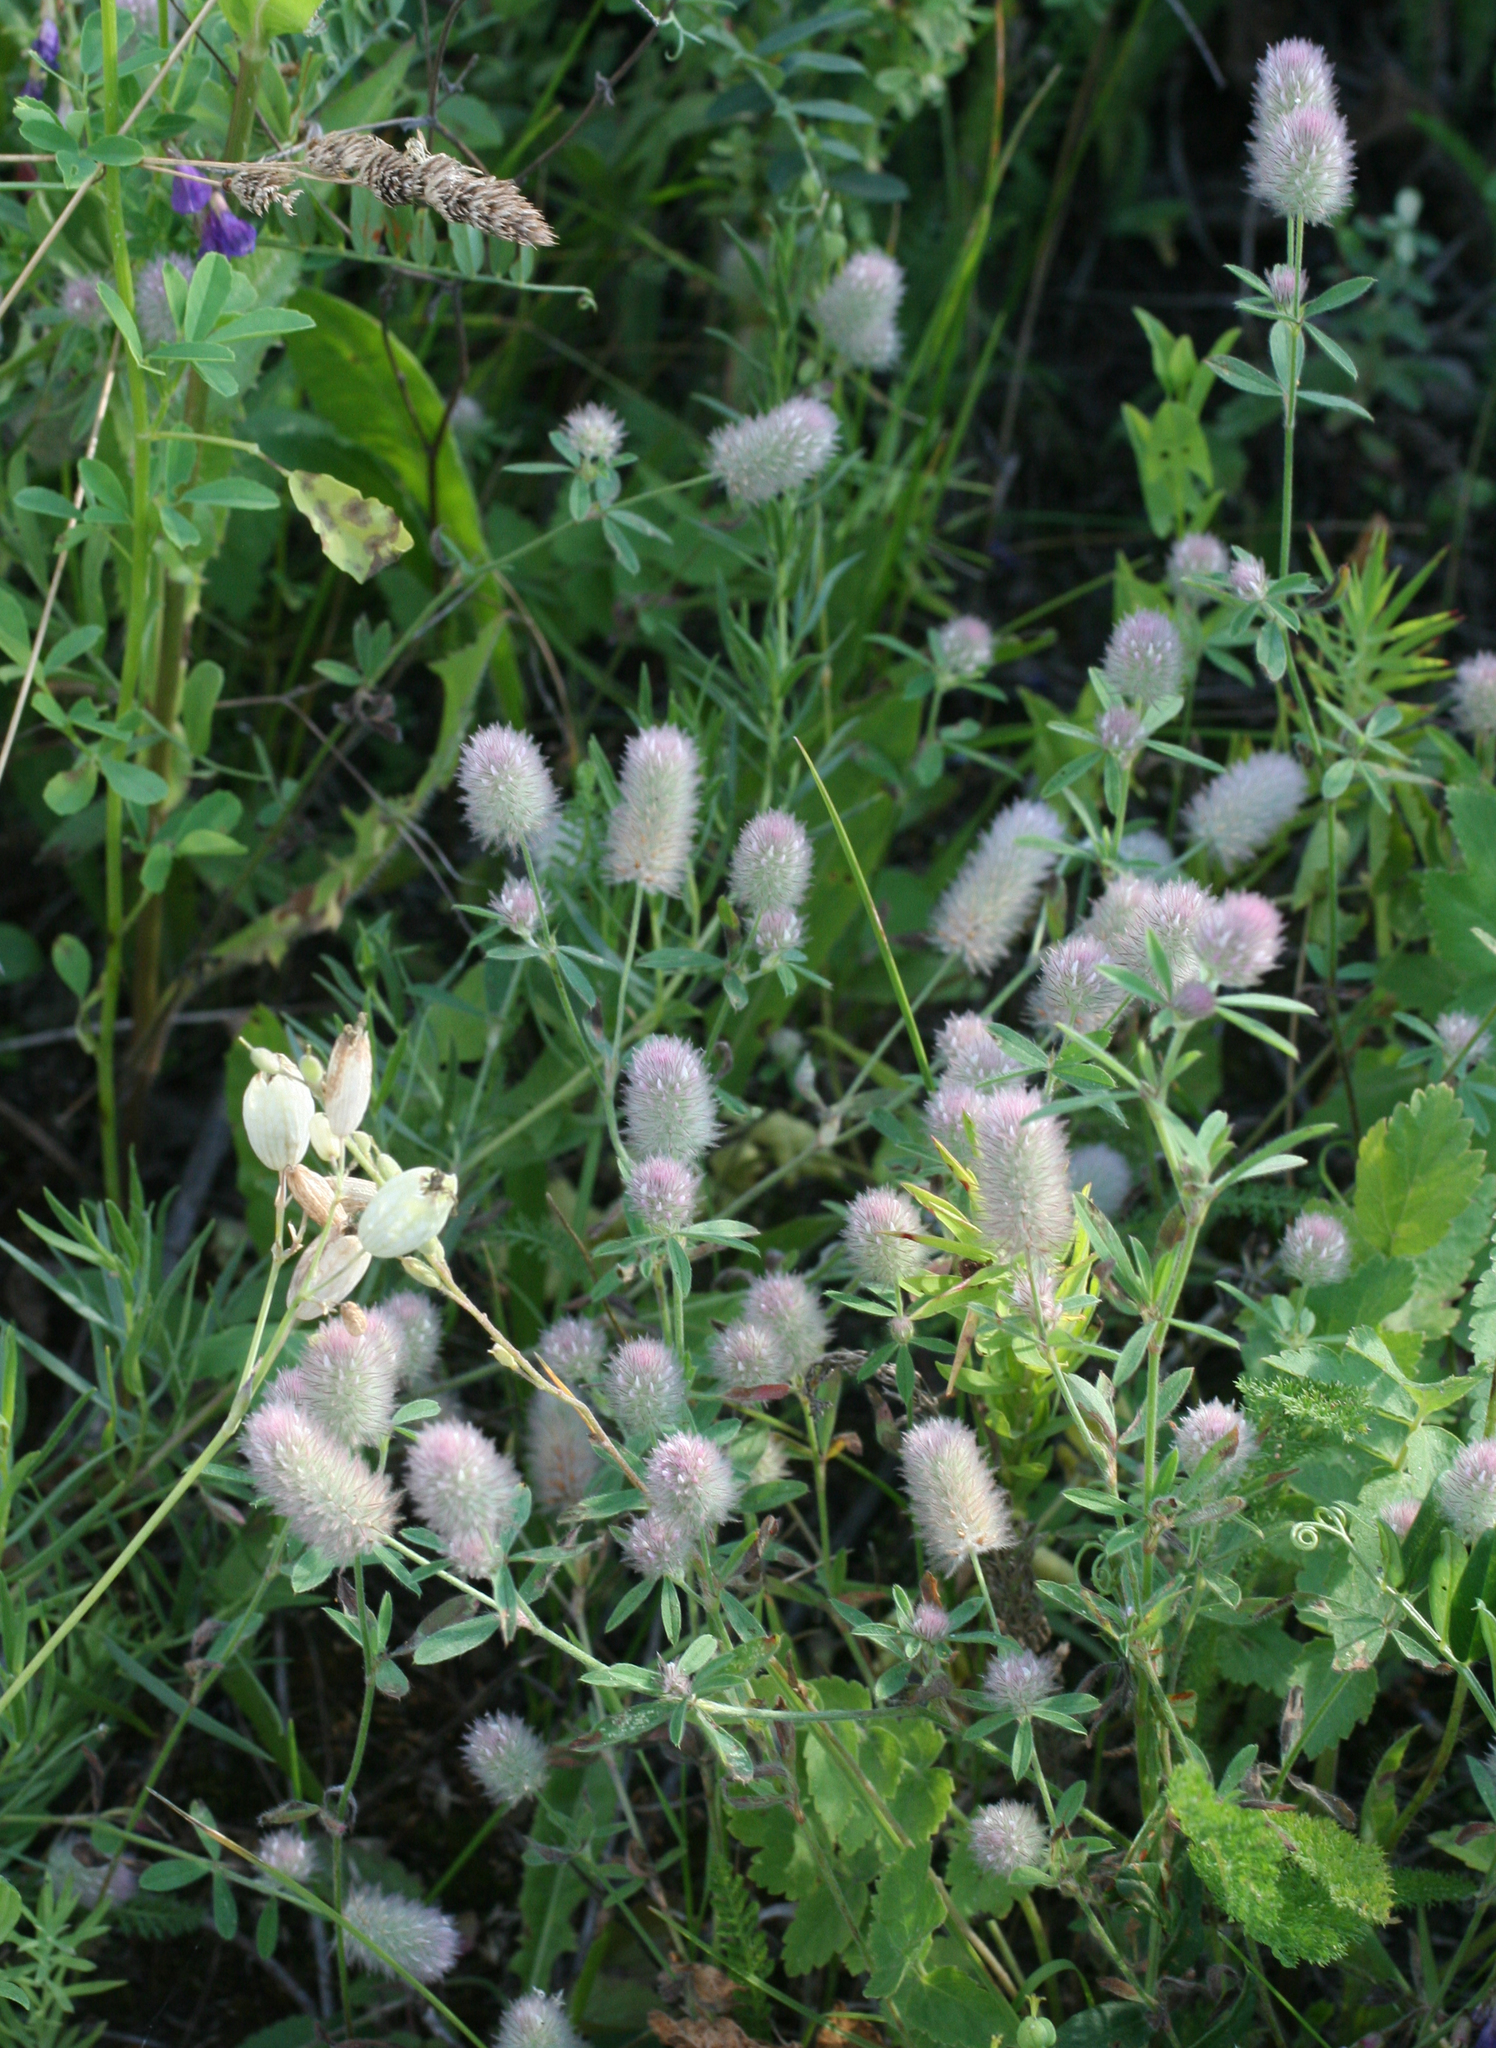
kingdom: Plantae
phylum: Tracheophyta
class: Magnoliopsida
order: Fabales
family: Fabaceae
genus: Trifolium
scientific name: Trifolium arvense
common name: Hare's-foot clover
